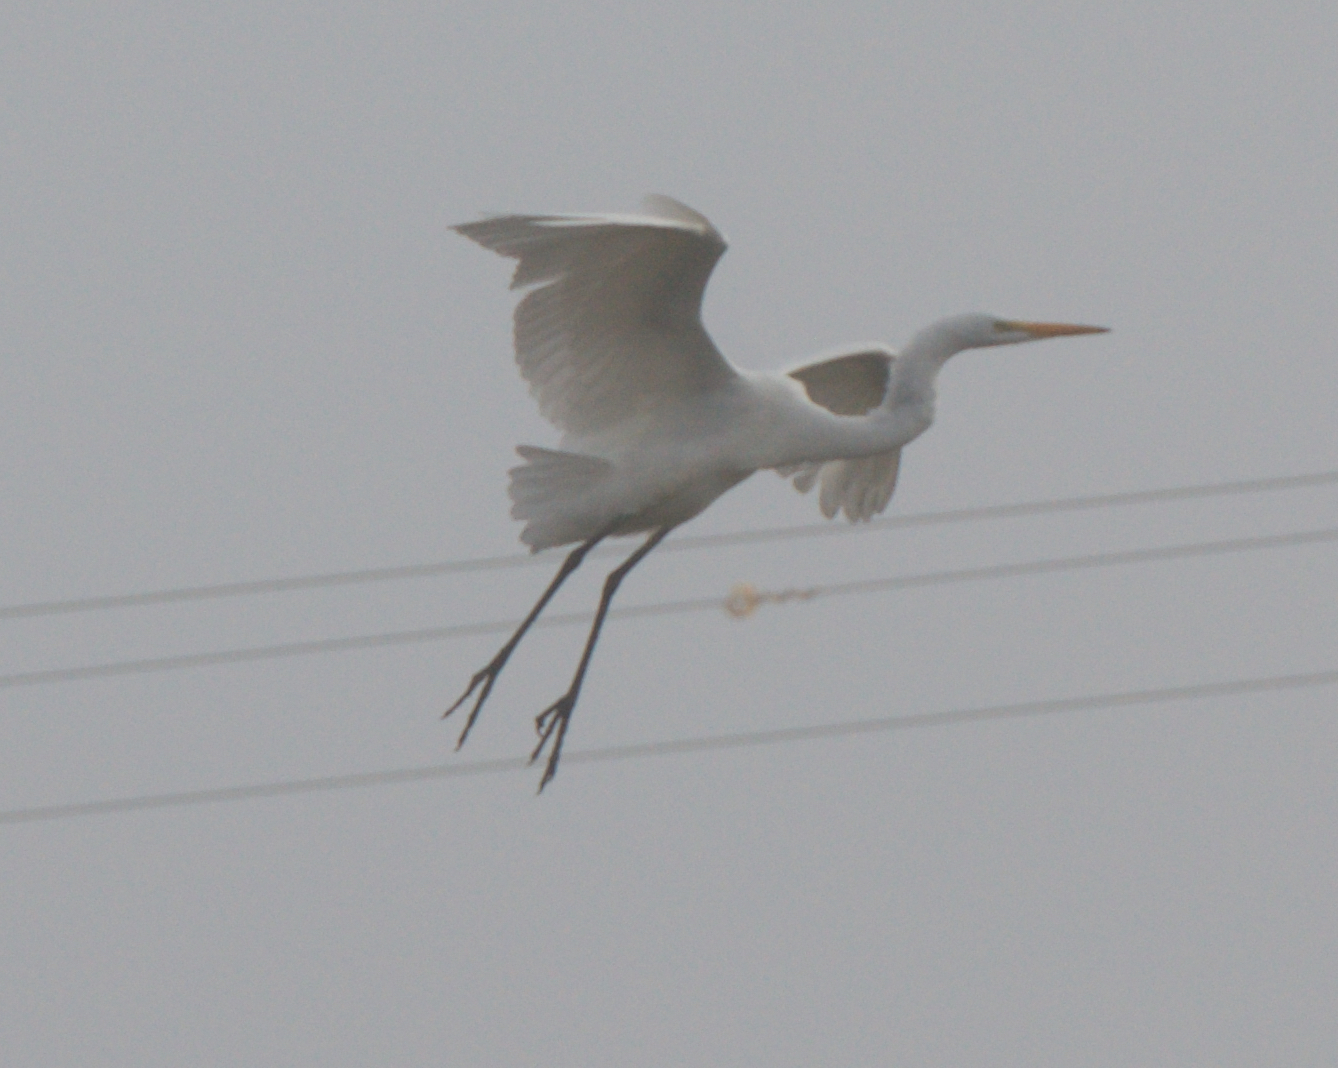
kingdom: Animalia
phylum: Chordata
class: Aves
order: Pelecaniformes
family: Ardeidae
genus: Ardea
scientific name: Ardea alba
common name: Great egret
